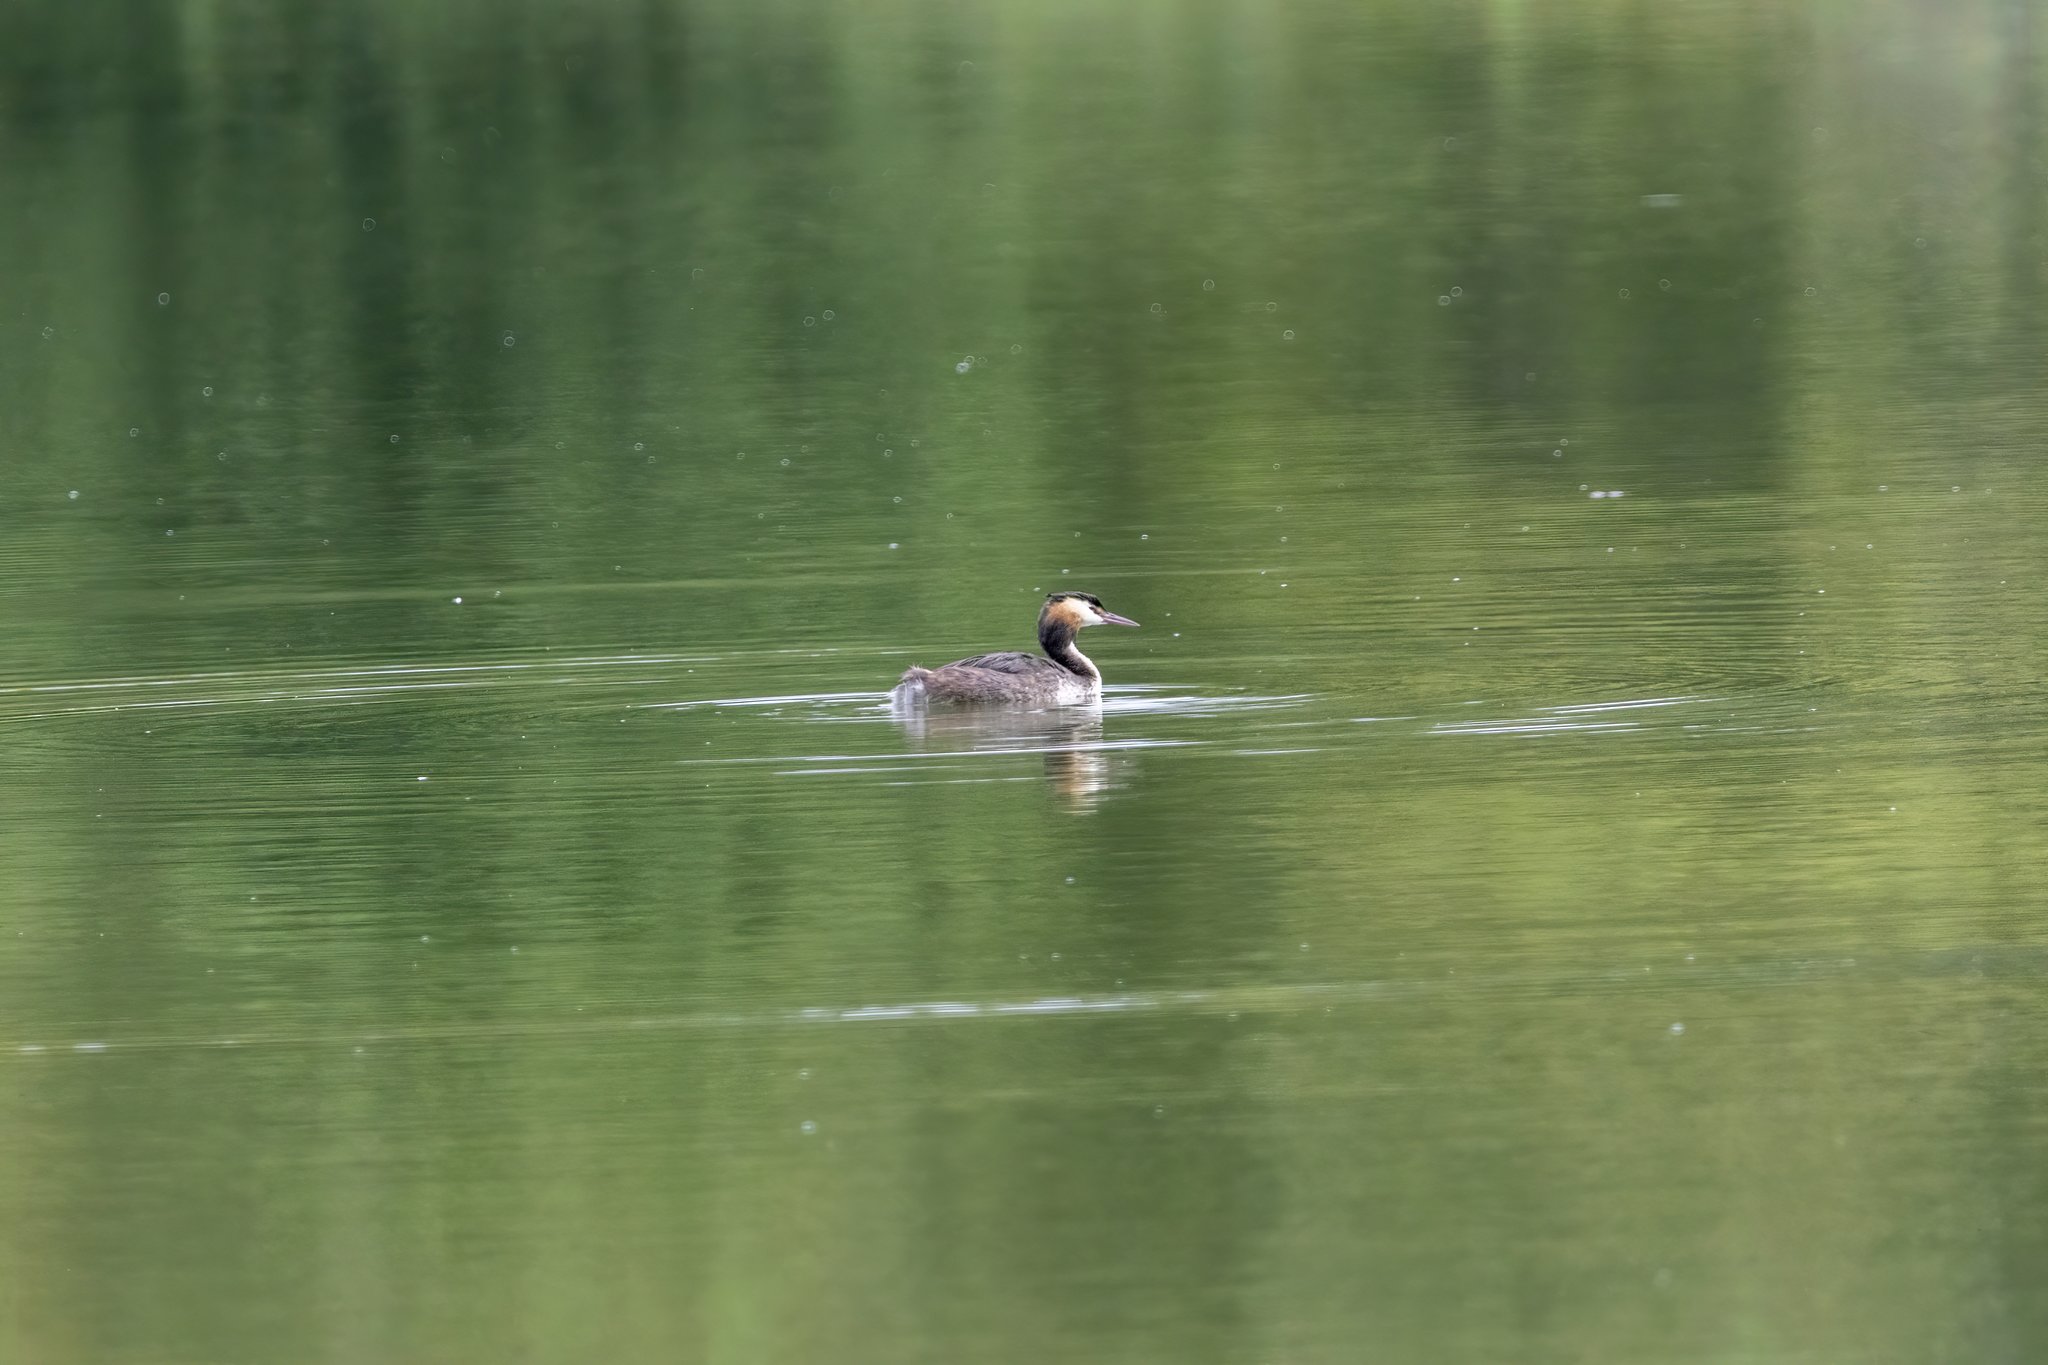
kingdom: Animalia
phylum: Chordata
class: Aves
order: Podicipediformes
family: Podicipedidae
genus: Podiceps
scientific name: Podiceps cristatus
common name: Great crested grebe
